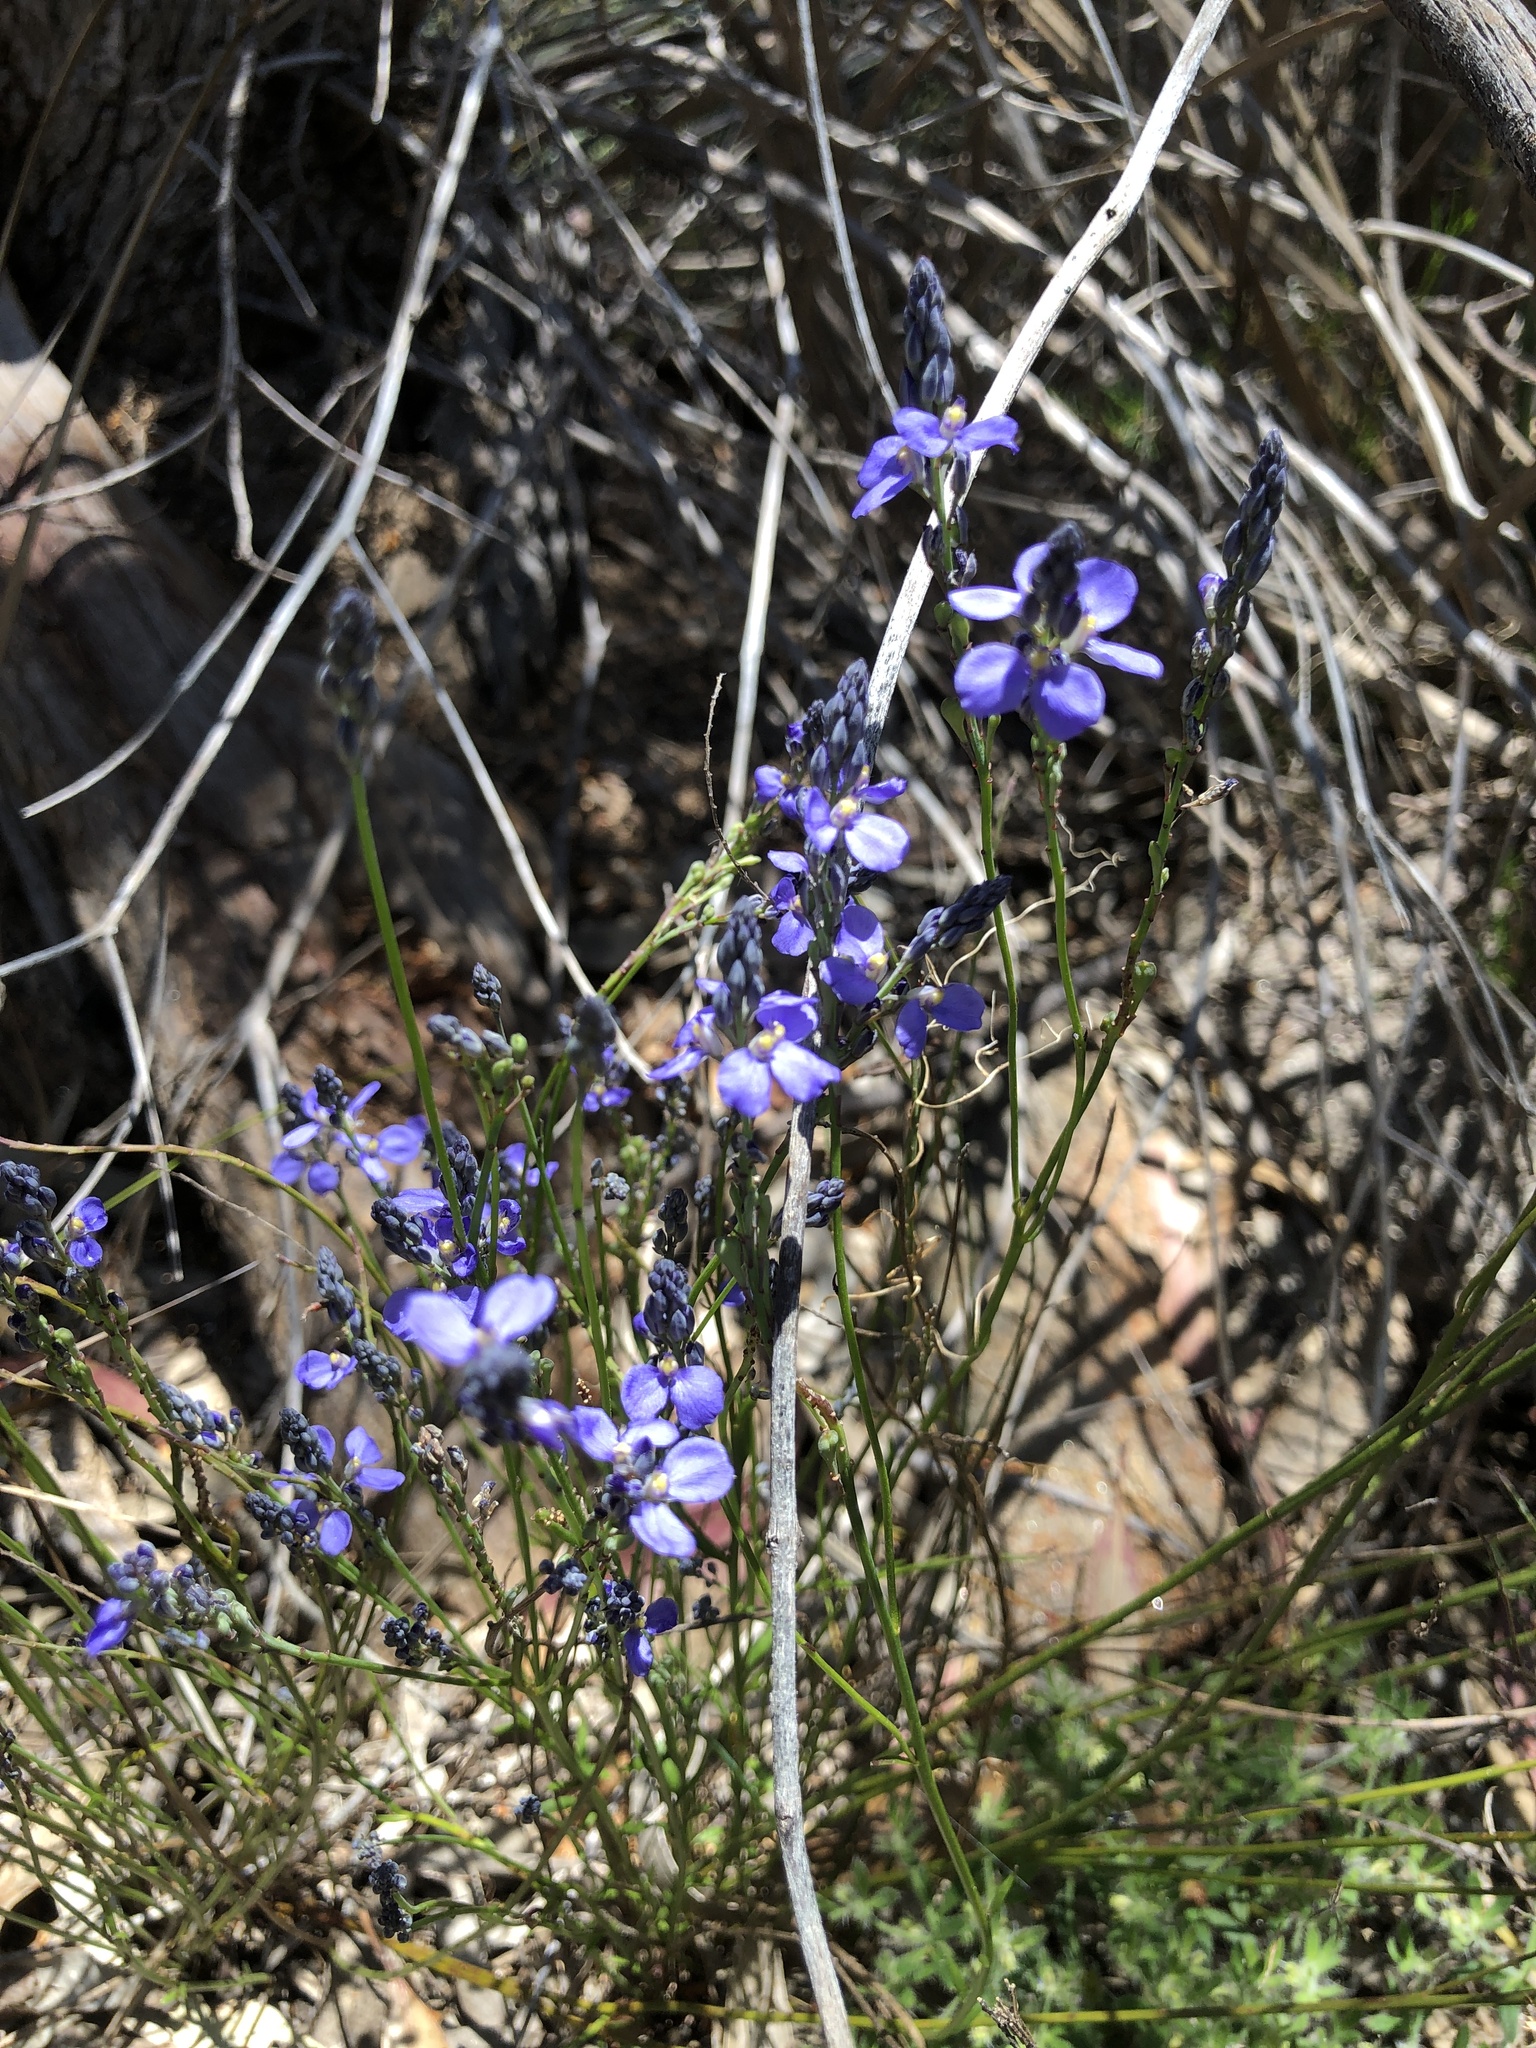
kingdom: Plantae
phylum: Tracheophyta
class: Magnoliopsida
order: Fabales
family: Polygalaceae
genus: Comesperma
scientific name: Comesperma calymega
